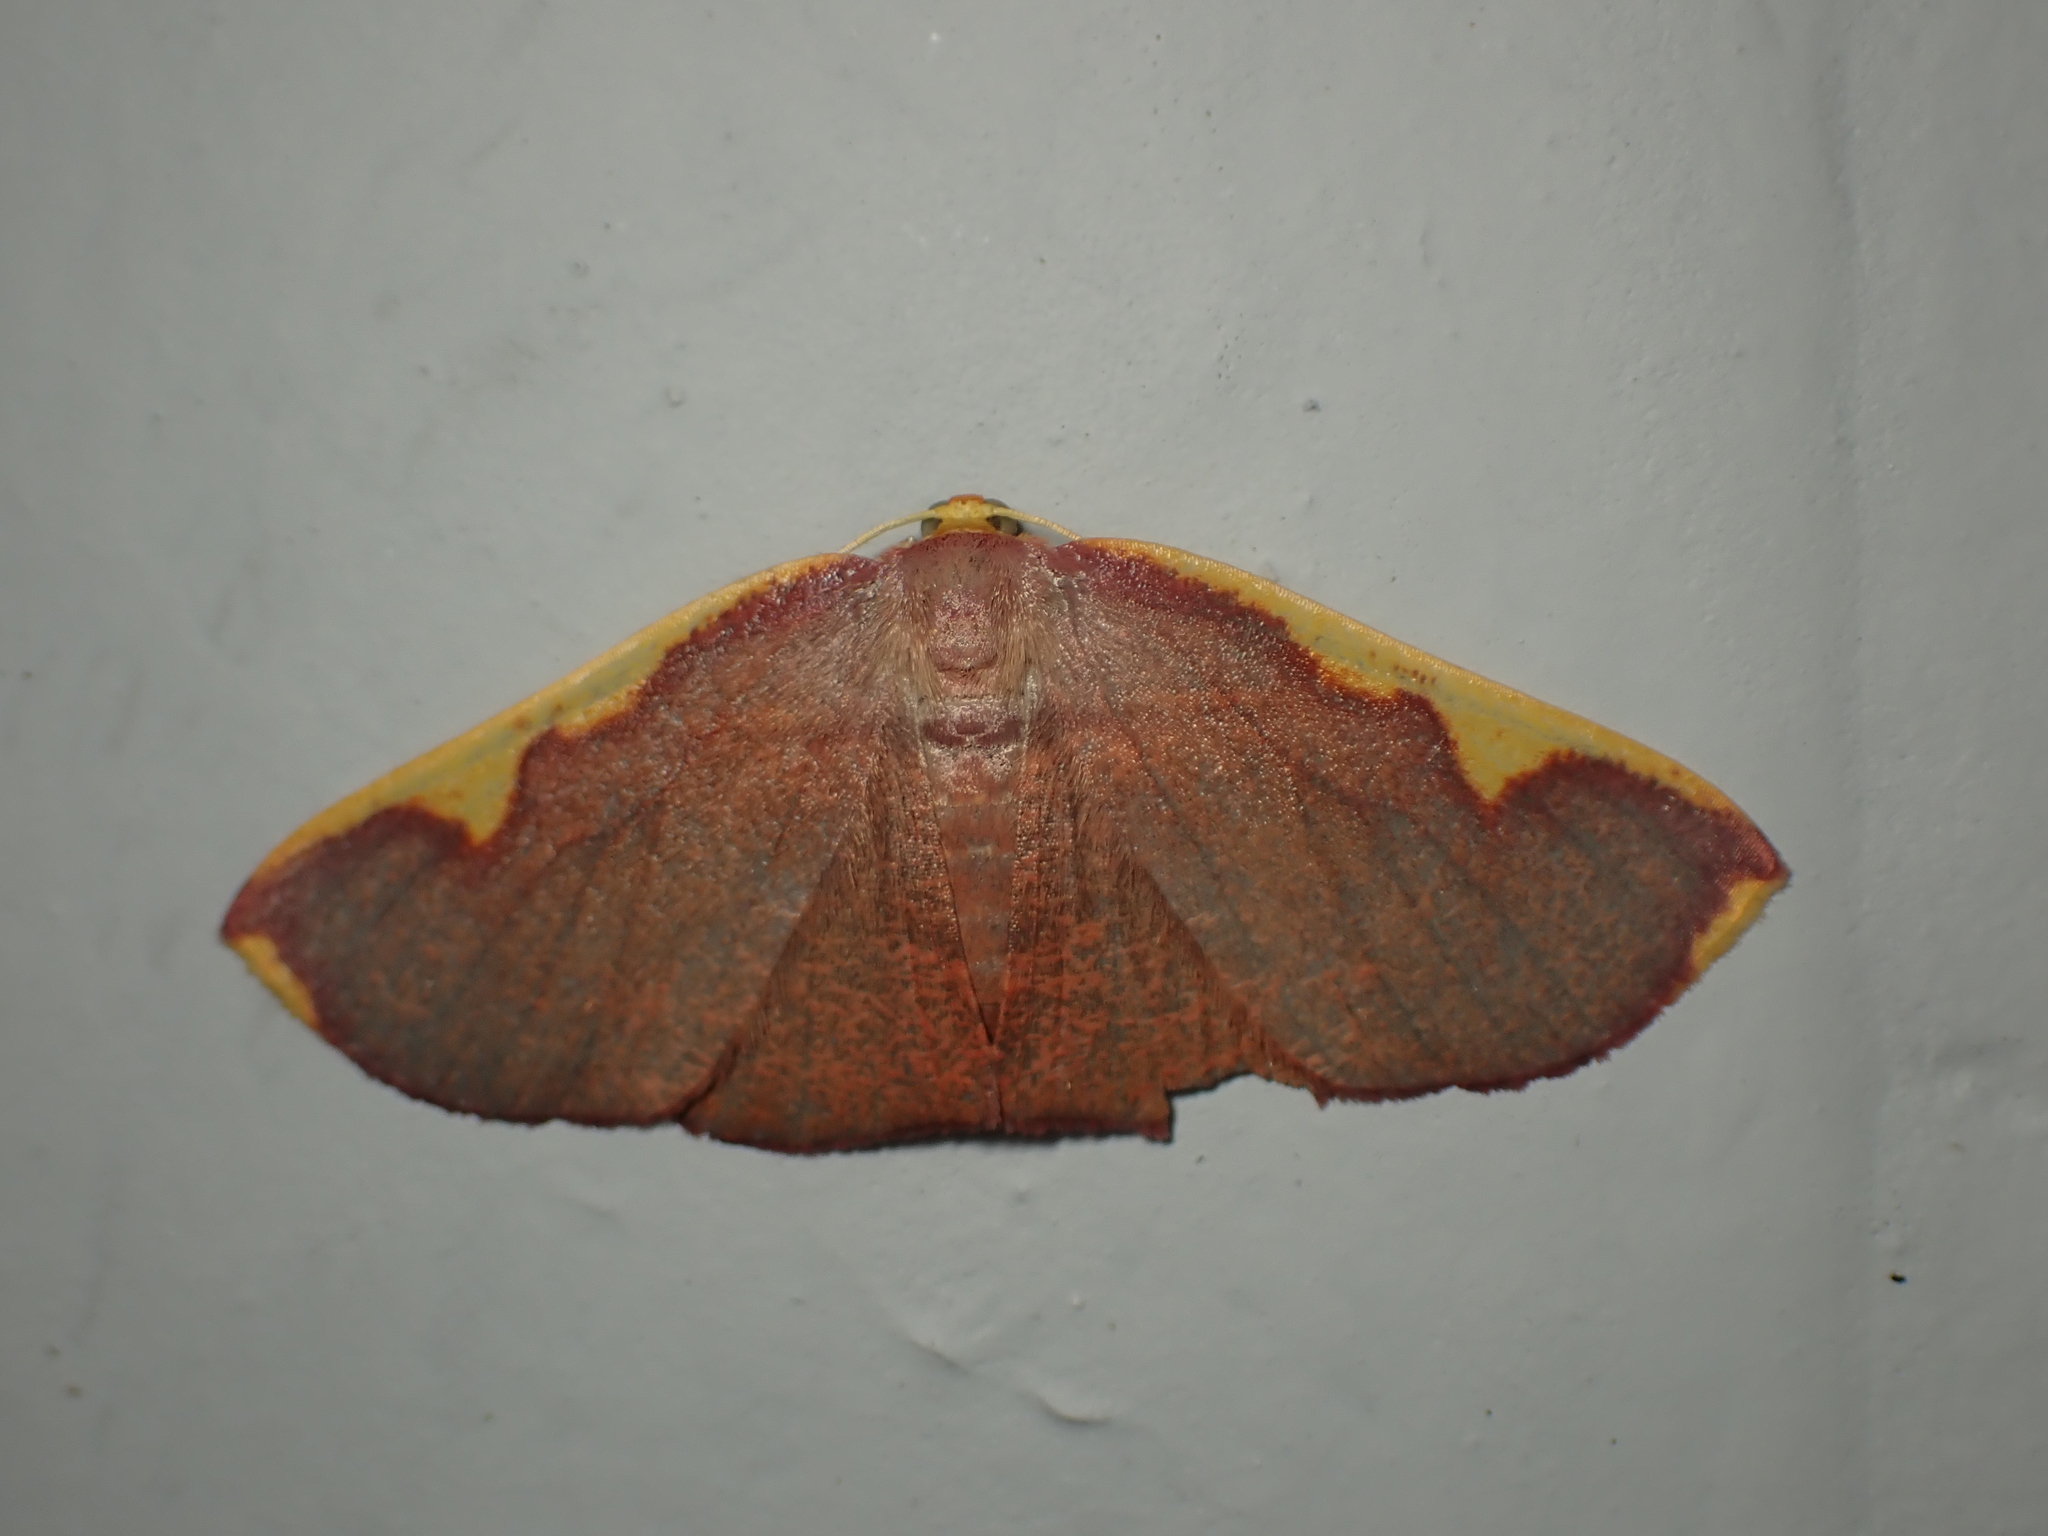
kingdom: Animalia
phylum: Arthropoda
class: Insecta
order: Lepidoptera
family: Geometridae
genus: Nothomiza
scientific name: Nothomiza flavicosta
